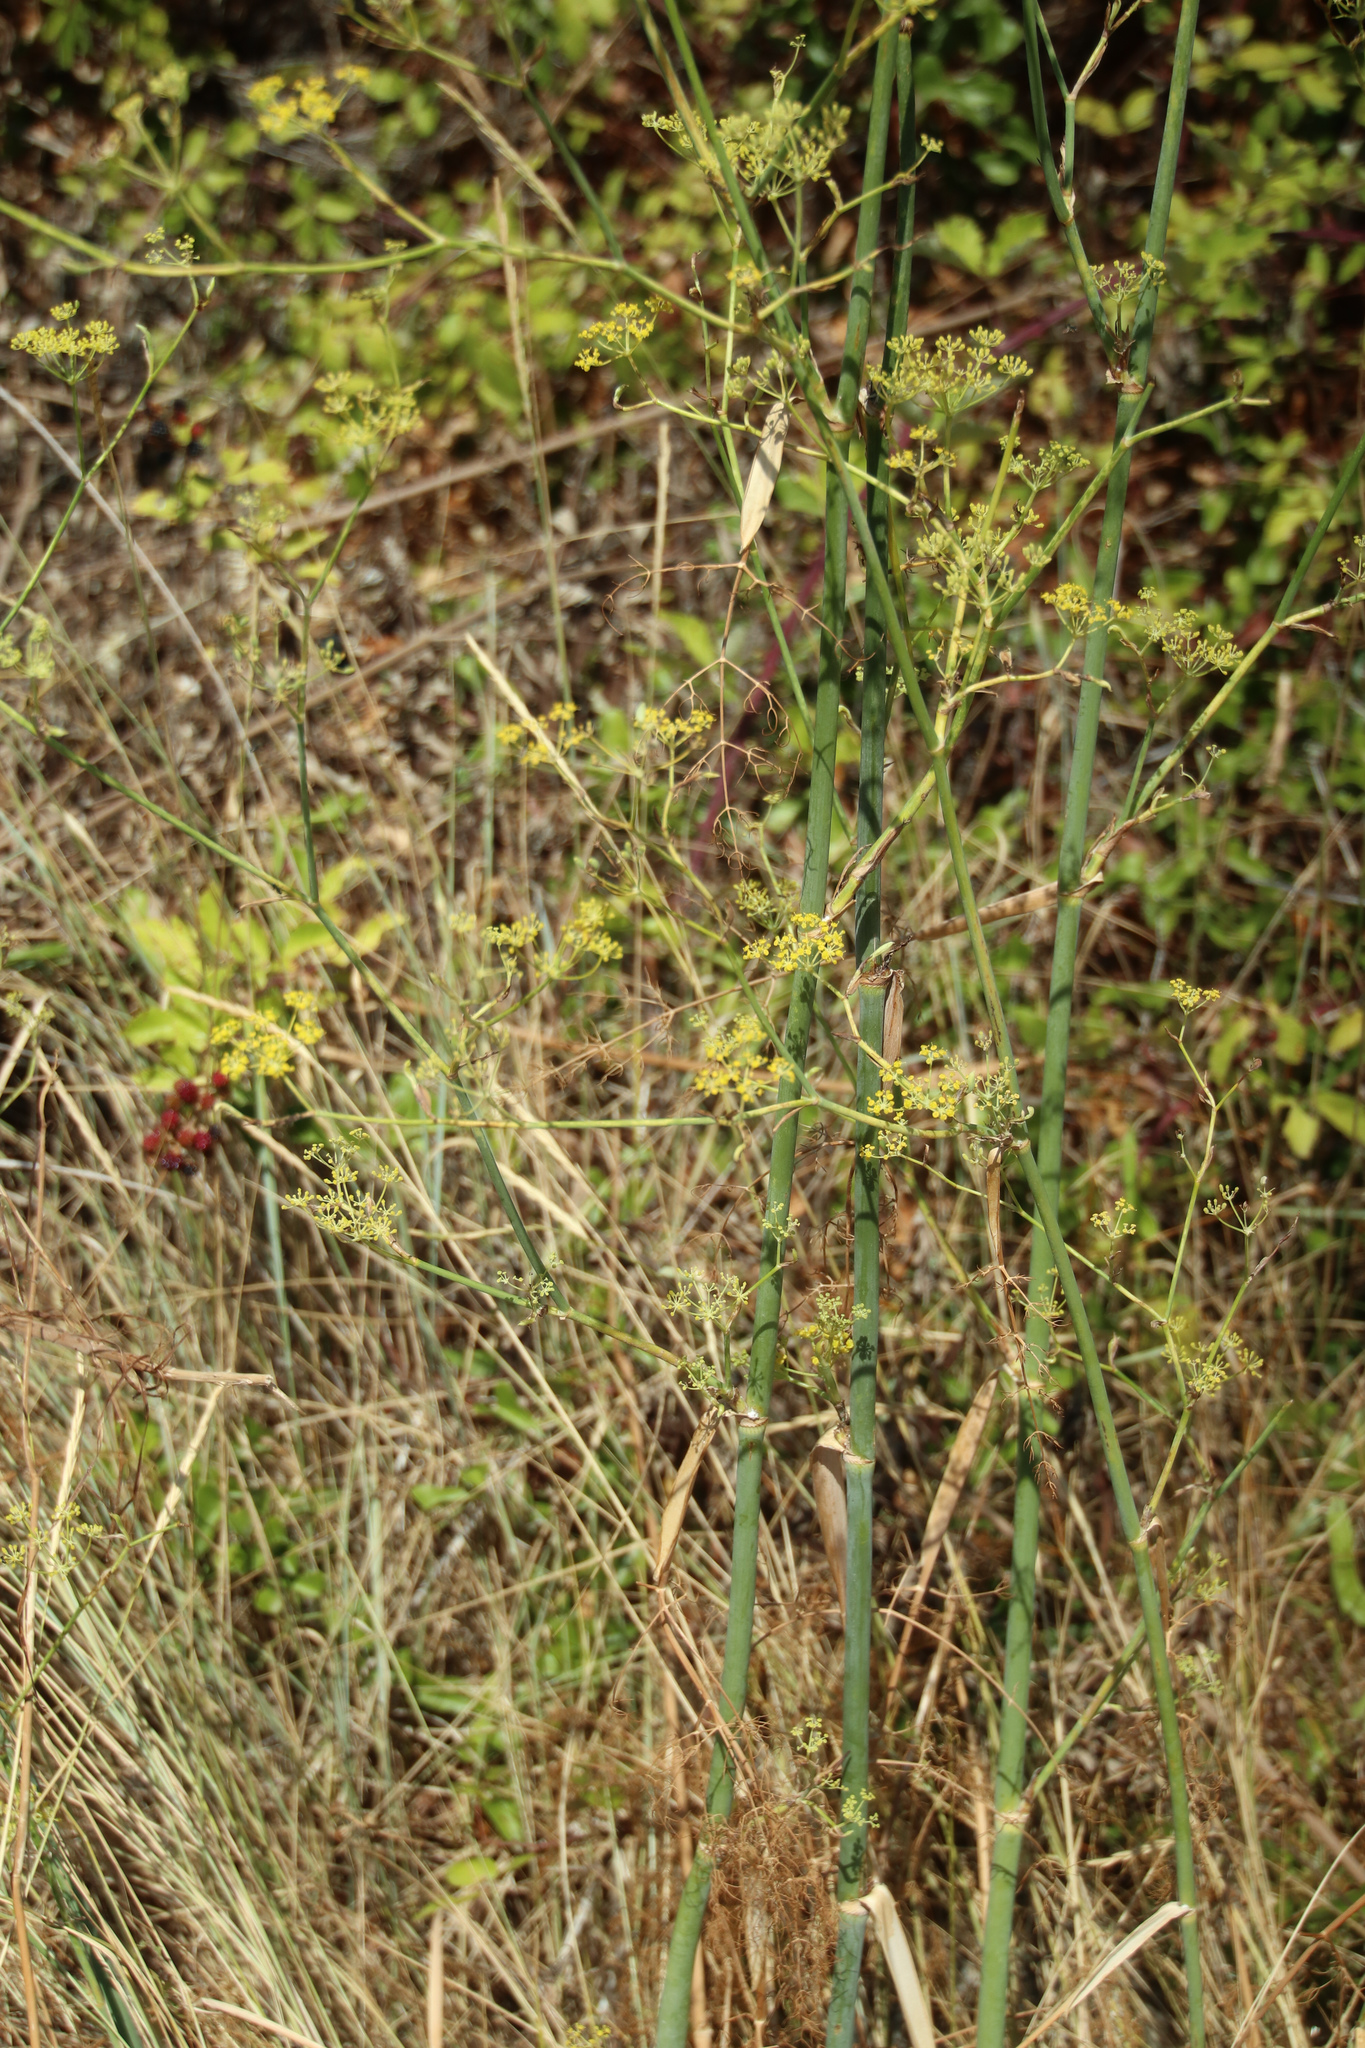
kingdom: Plantae
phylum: Tracheophyta
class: Magnoliopsida
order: Apiales
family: Apiaceae
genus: Foeniculum
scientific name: Foeniculum vulgare
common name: Fennel
